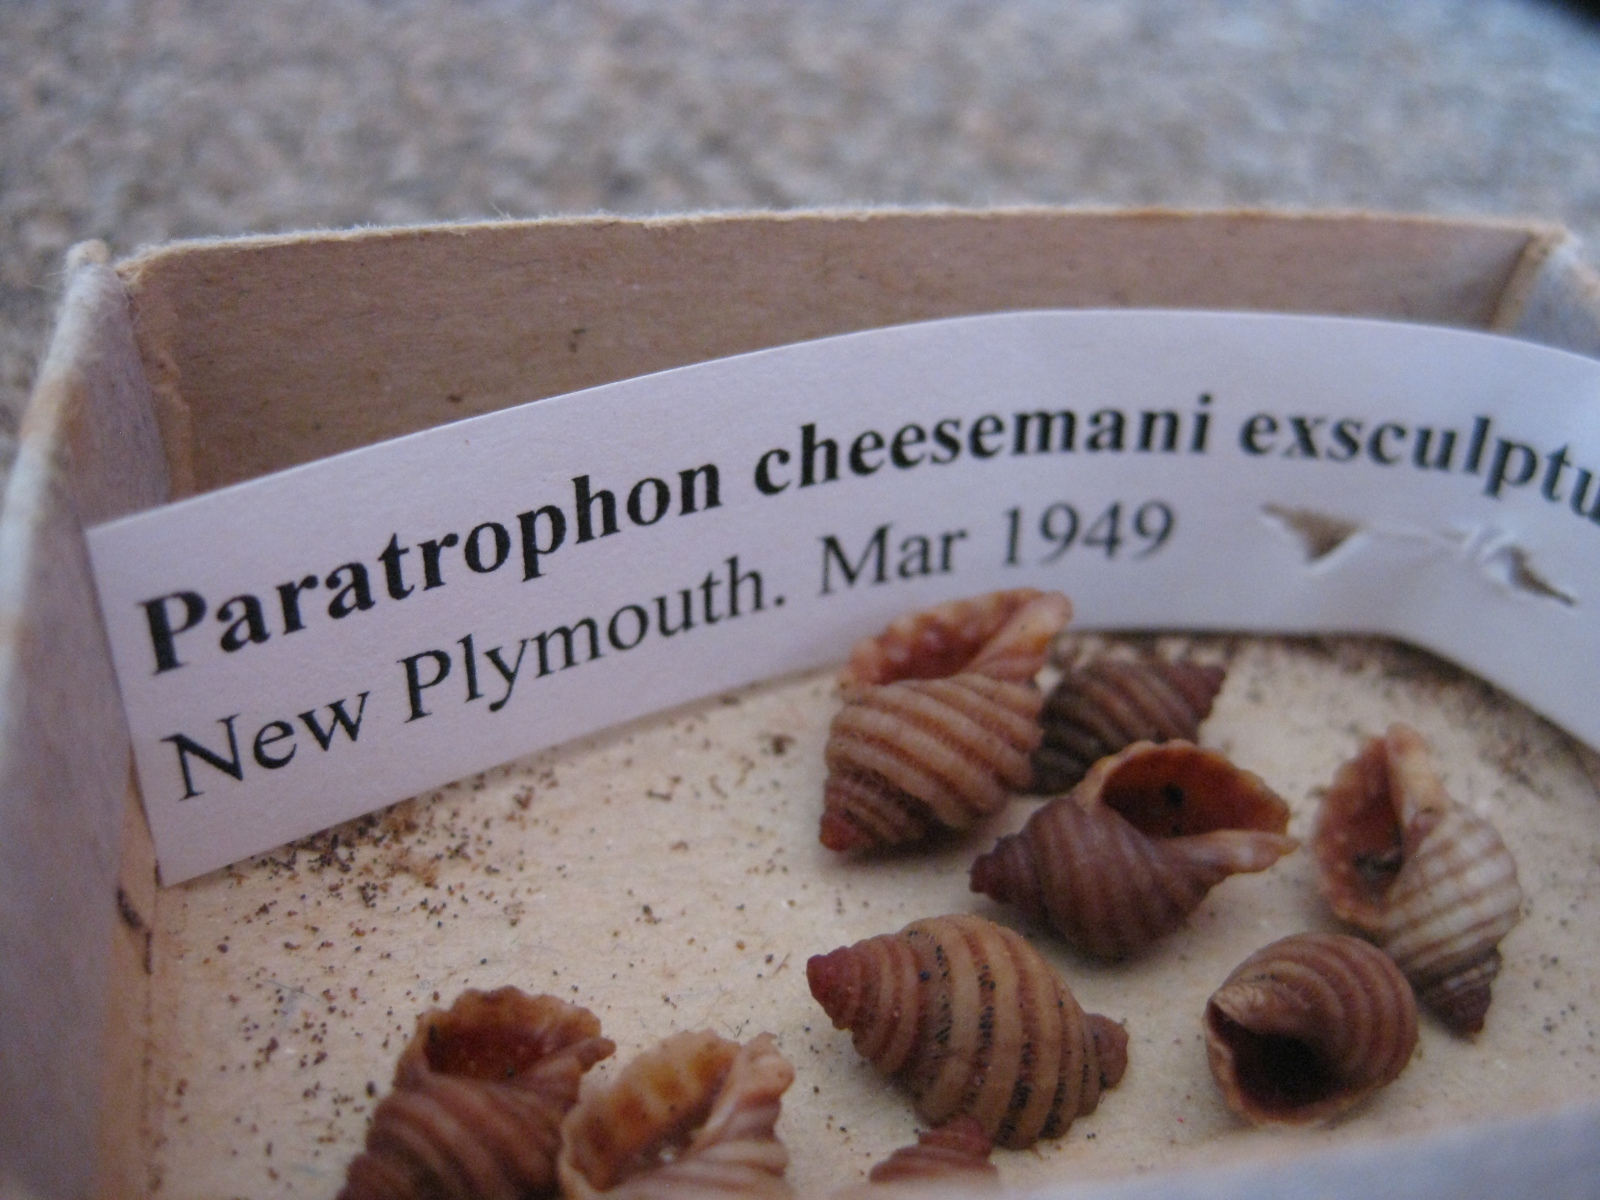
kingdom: Animalia
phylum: Mollusca
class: Gastropoda
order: Neogastropoda
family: Muricidae
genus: Paratrophon
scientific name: Paratrophon cheesemani
